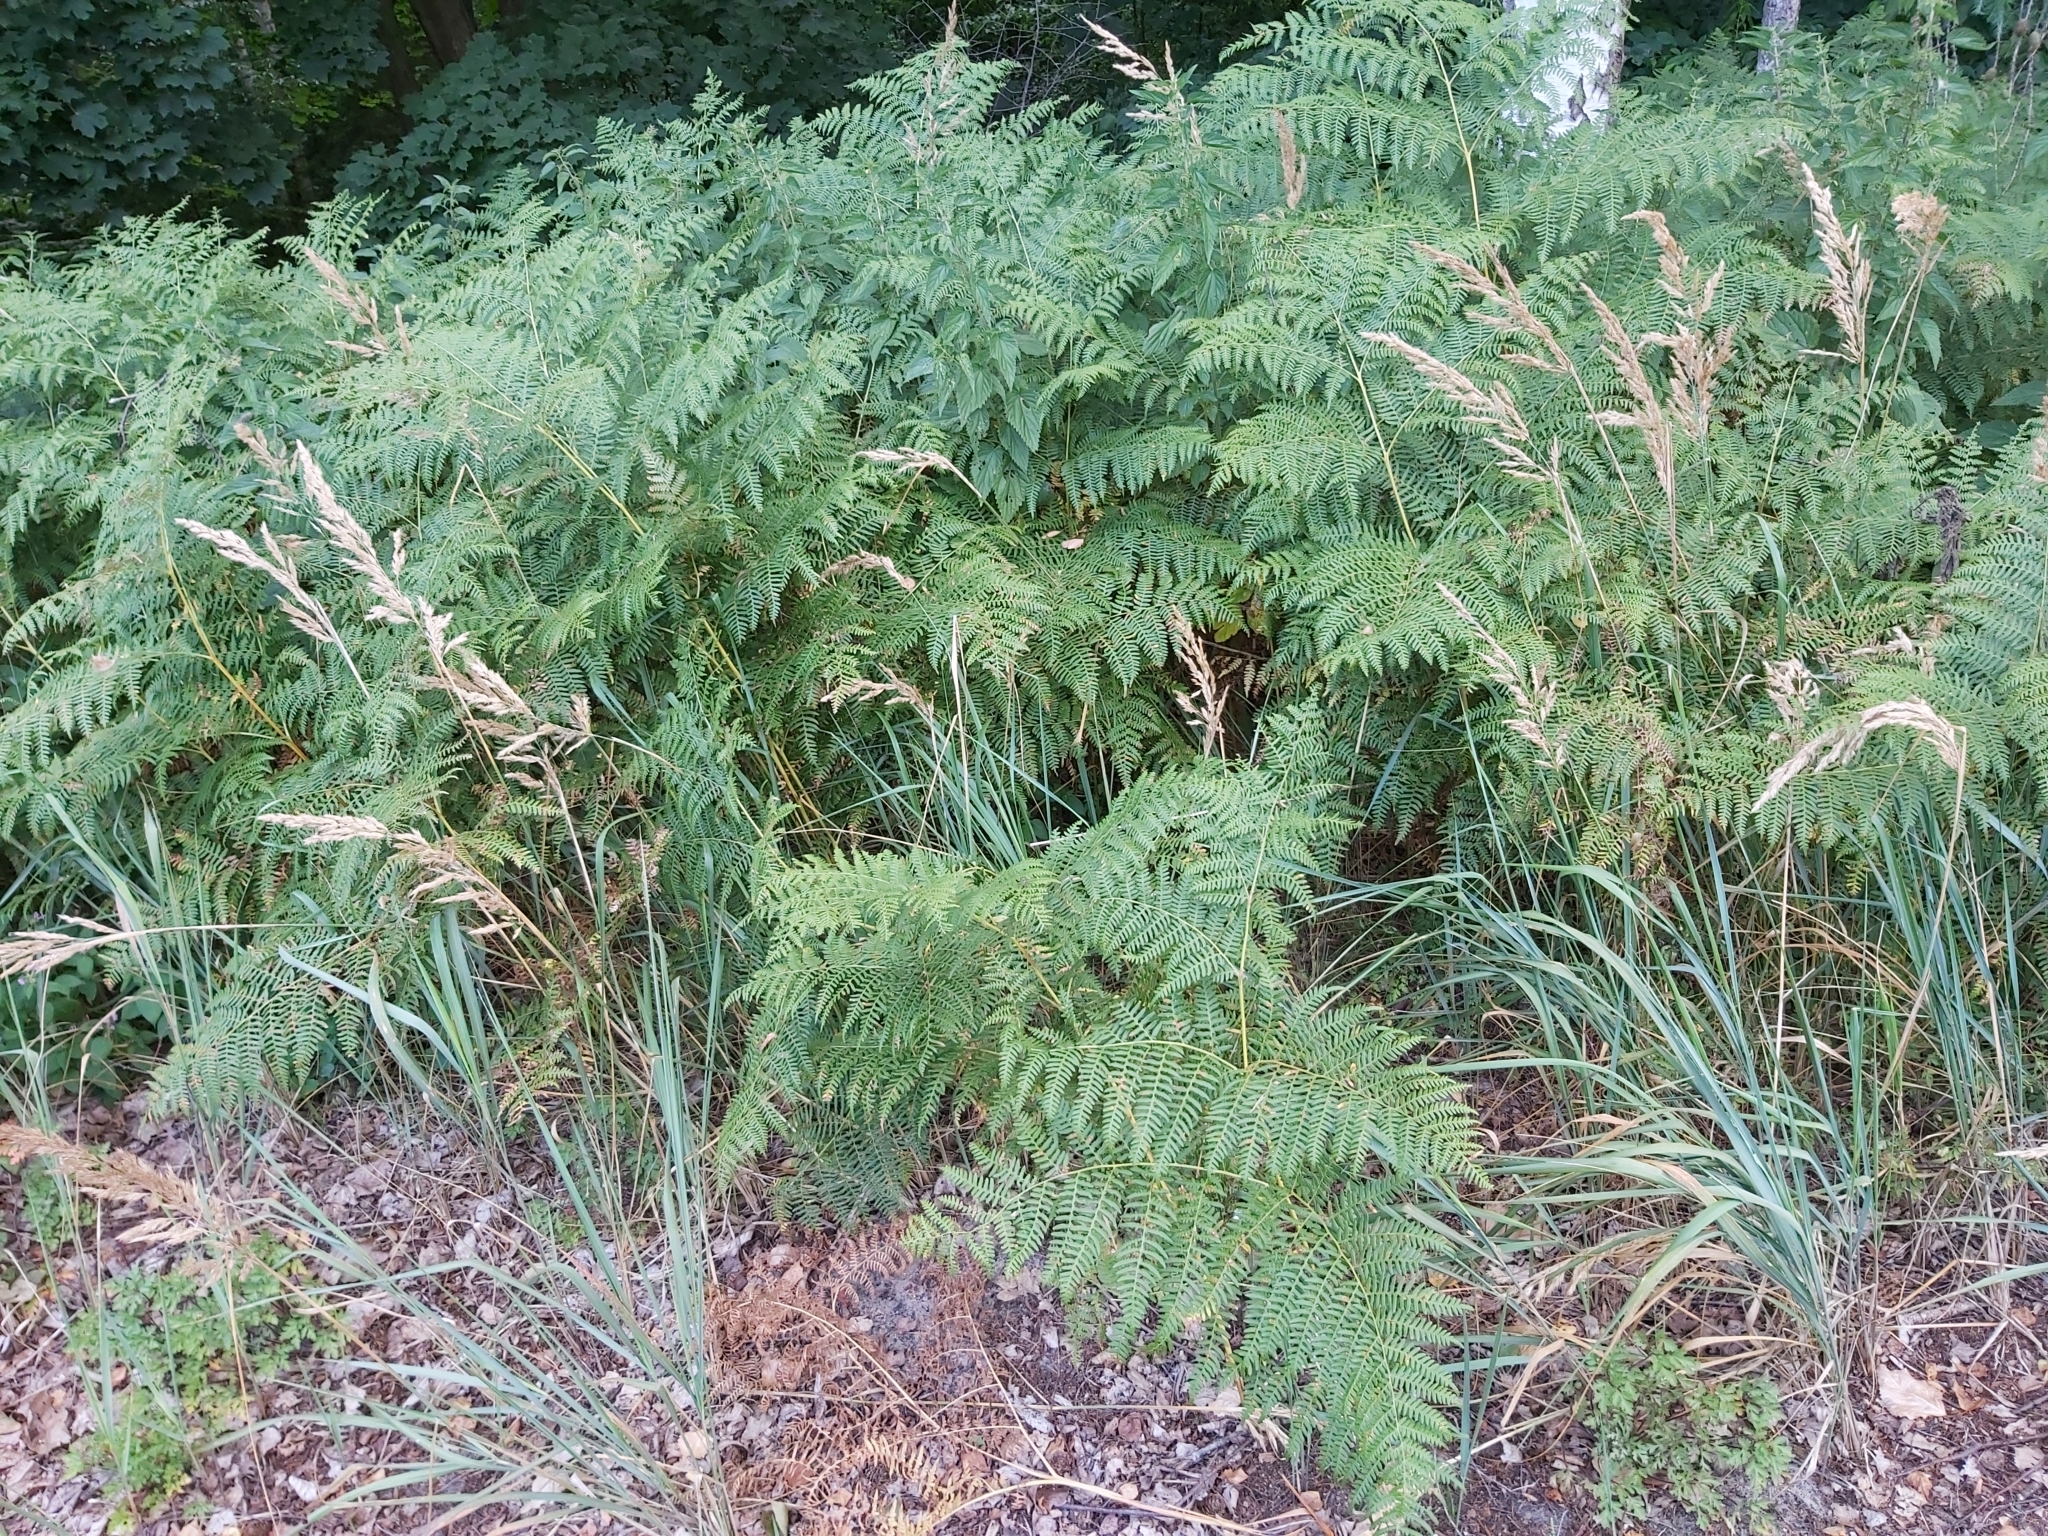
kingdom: Plantae
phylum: Tracheophyta
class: Polypodiopsida
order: Polypodiales
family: Dennstaedtiaceae
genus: Pteridium
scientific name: Pteridium aquilinum
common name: Bracken
